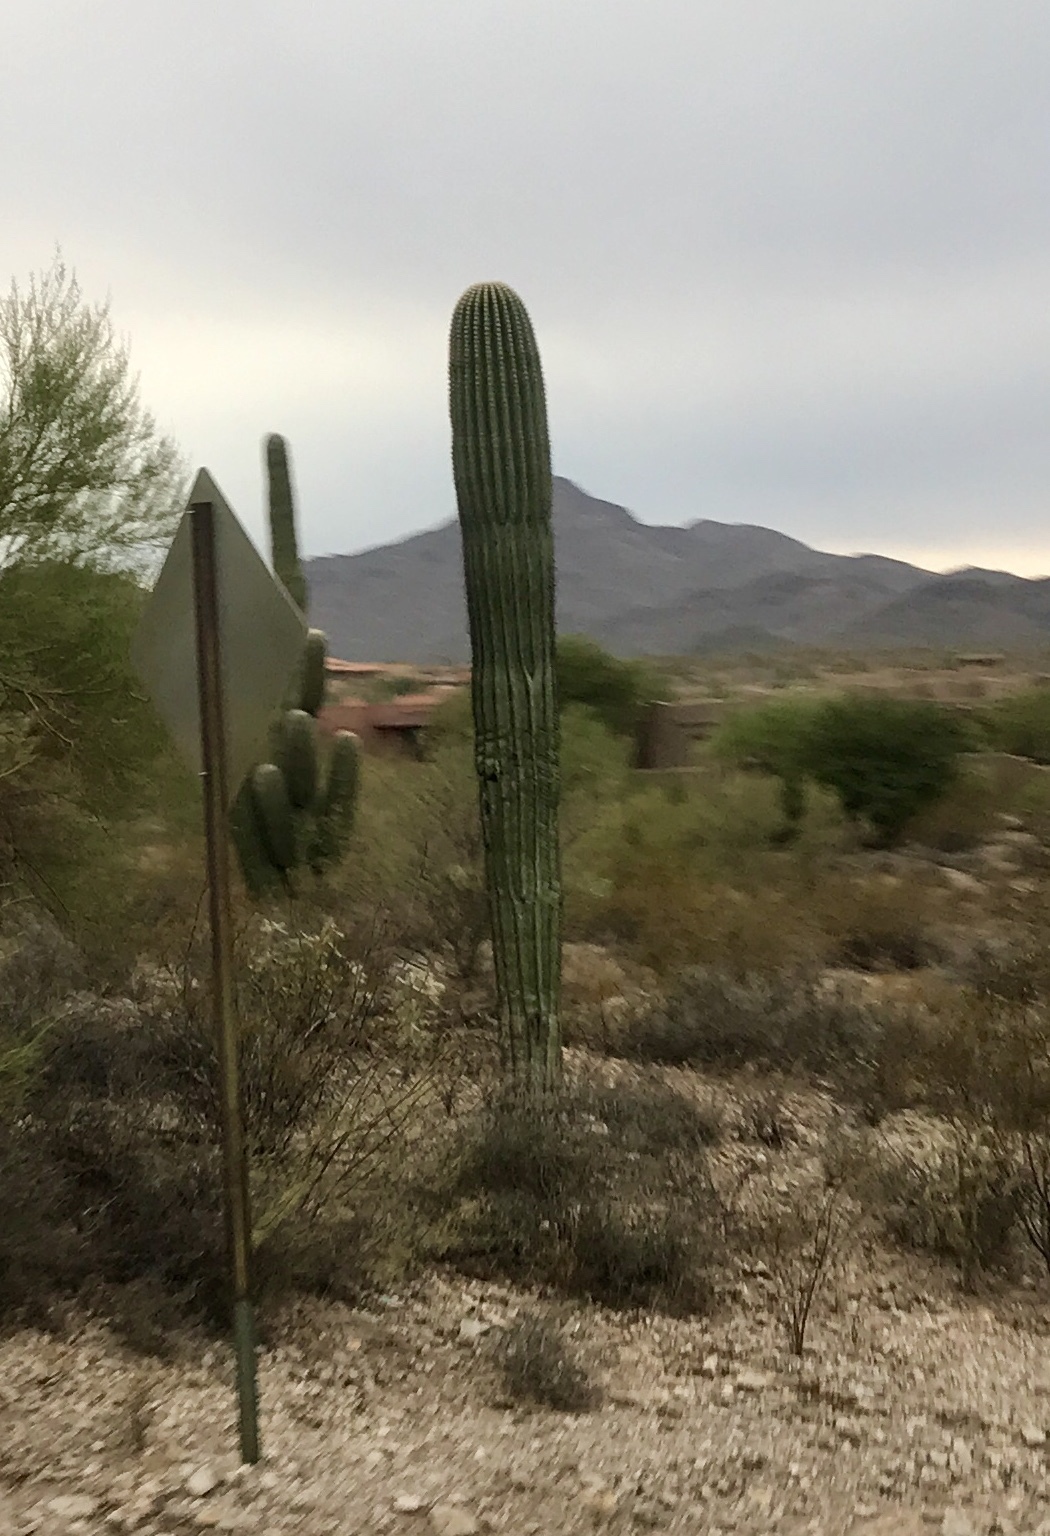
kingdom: Plantae
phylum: Tracheophyta
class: Magnoliopsida
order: Caryophyllales
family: Cactaceae
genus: Carnegiea
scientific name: Carnegiea gigantea
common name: Saguaro
